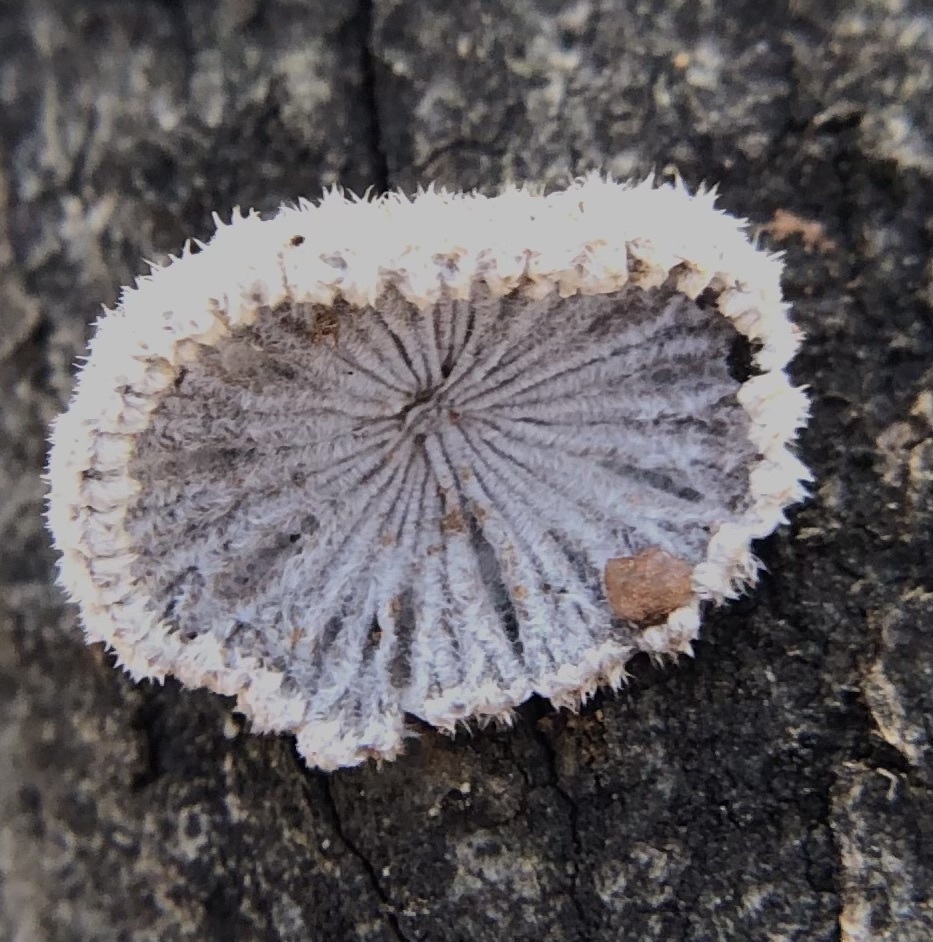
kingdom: Fungi
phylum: Basidiomycota
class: Agaricomycetes
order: Agaricales
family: Schizophyllaceae
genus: Schizophyllum
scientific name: Schizophyllum commune
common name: Common porecrust
